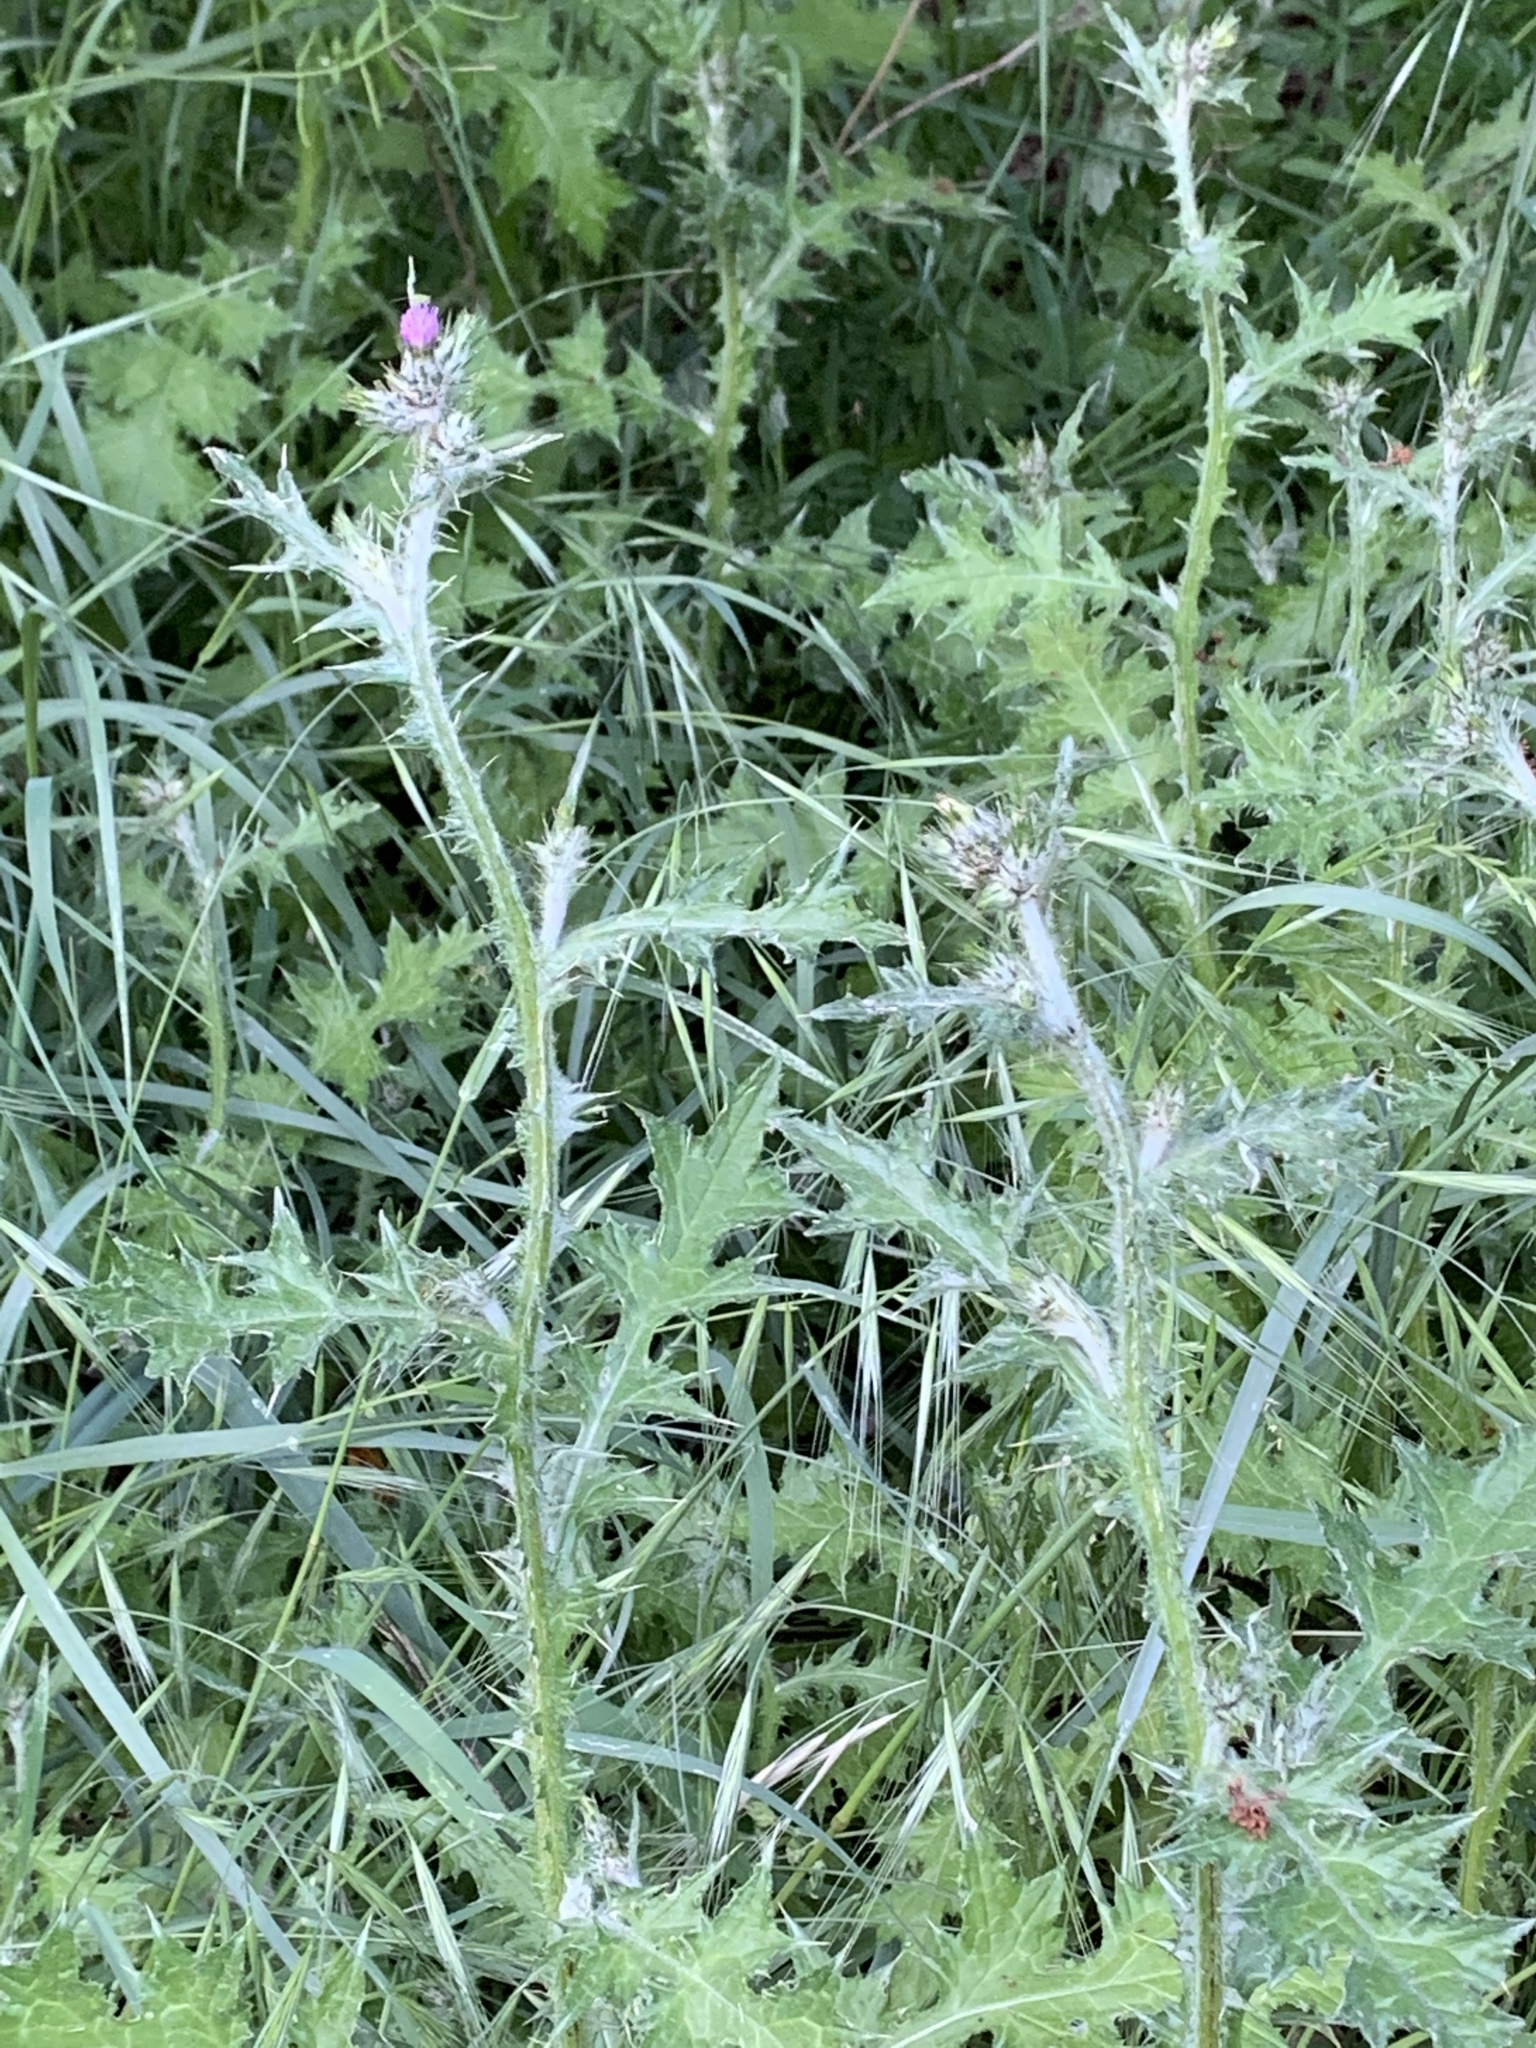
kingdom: Plantae
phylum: Tracheophyta
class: Magnoliopsida
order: Asterales
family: Asteraceae
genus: Carduus
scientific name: Carduus pycnocephalus
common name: Plymouth thistle
